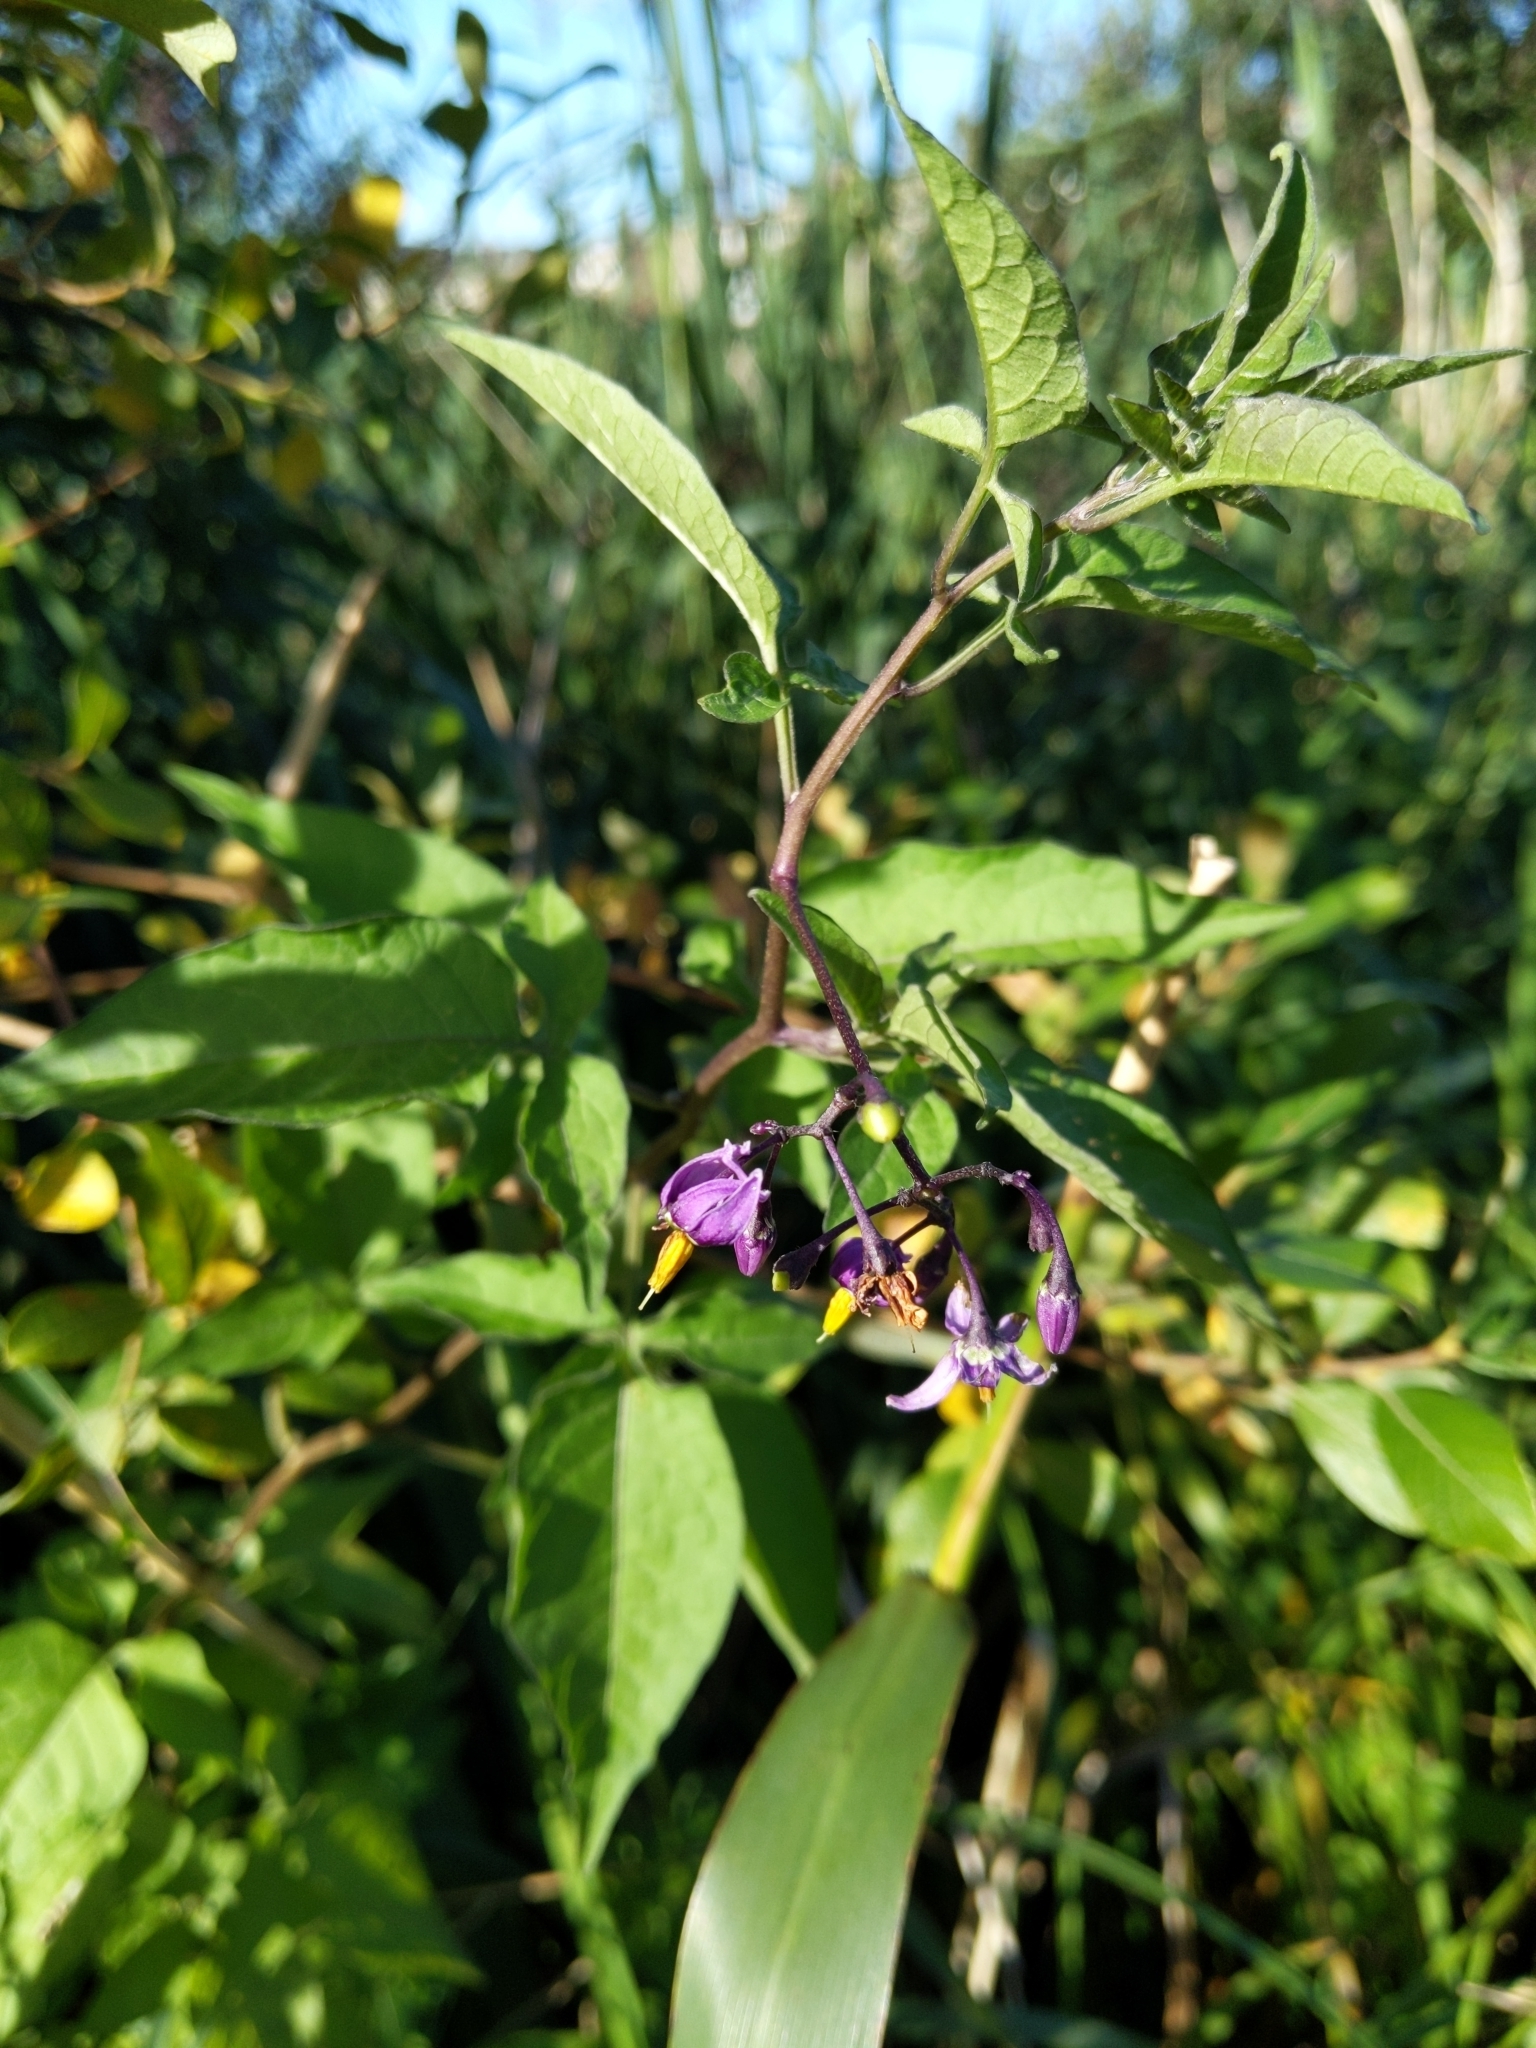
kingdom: Plantae
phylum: Tracheophyta
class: Magnoliopsida
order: Solanales
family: Solanaceae
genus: Solanum
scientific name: Solanum dulcamara
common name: Climbing nightshade
